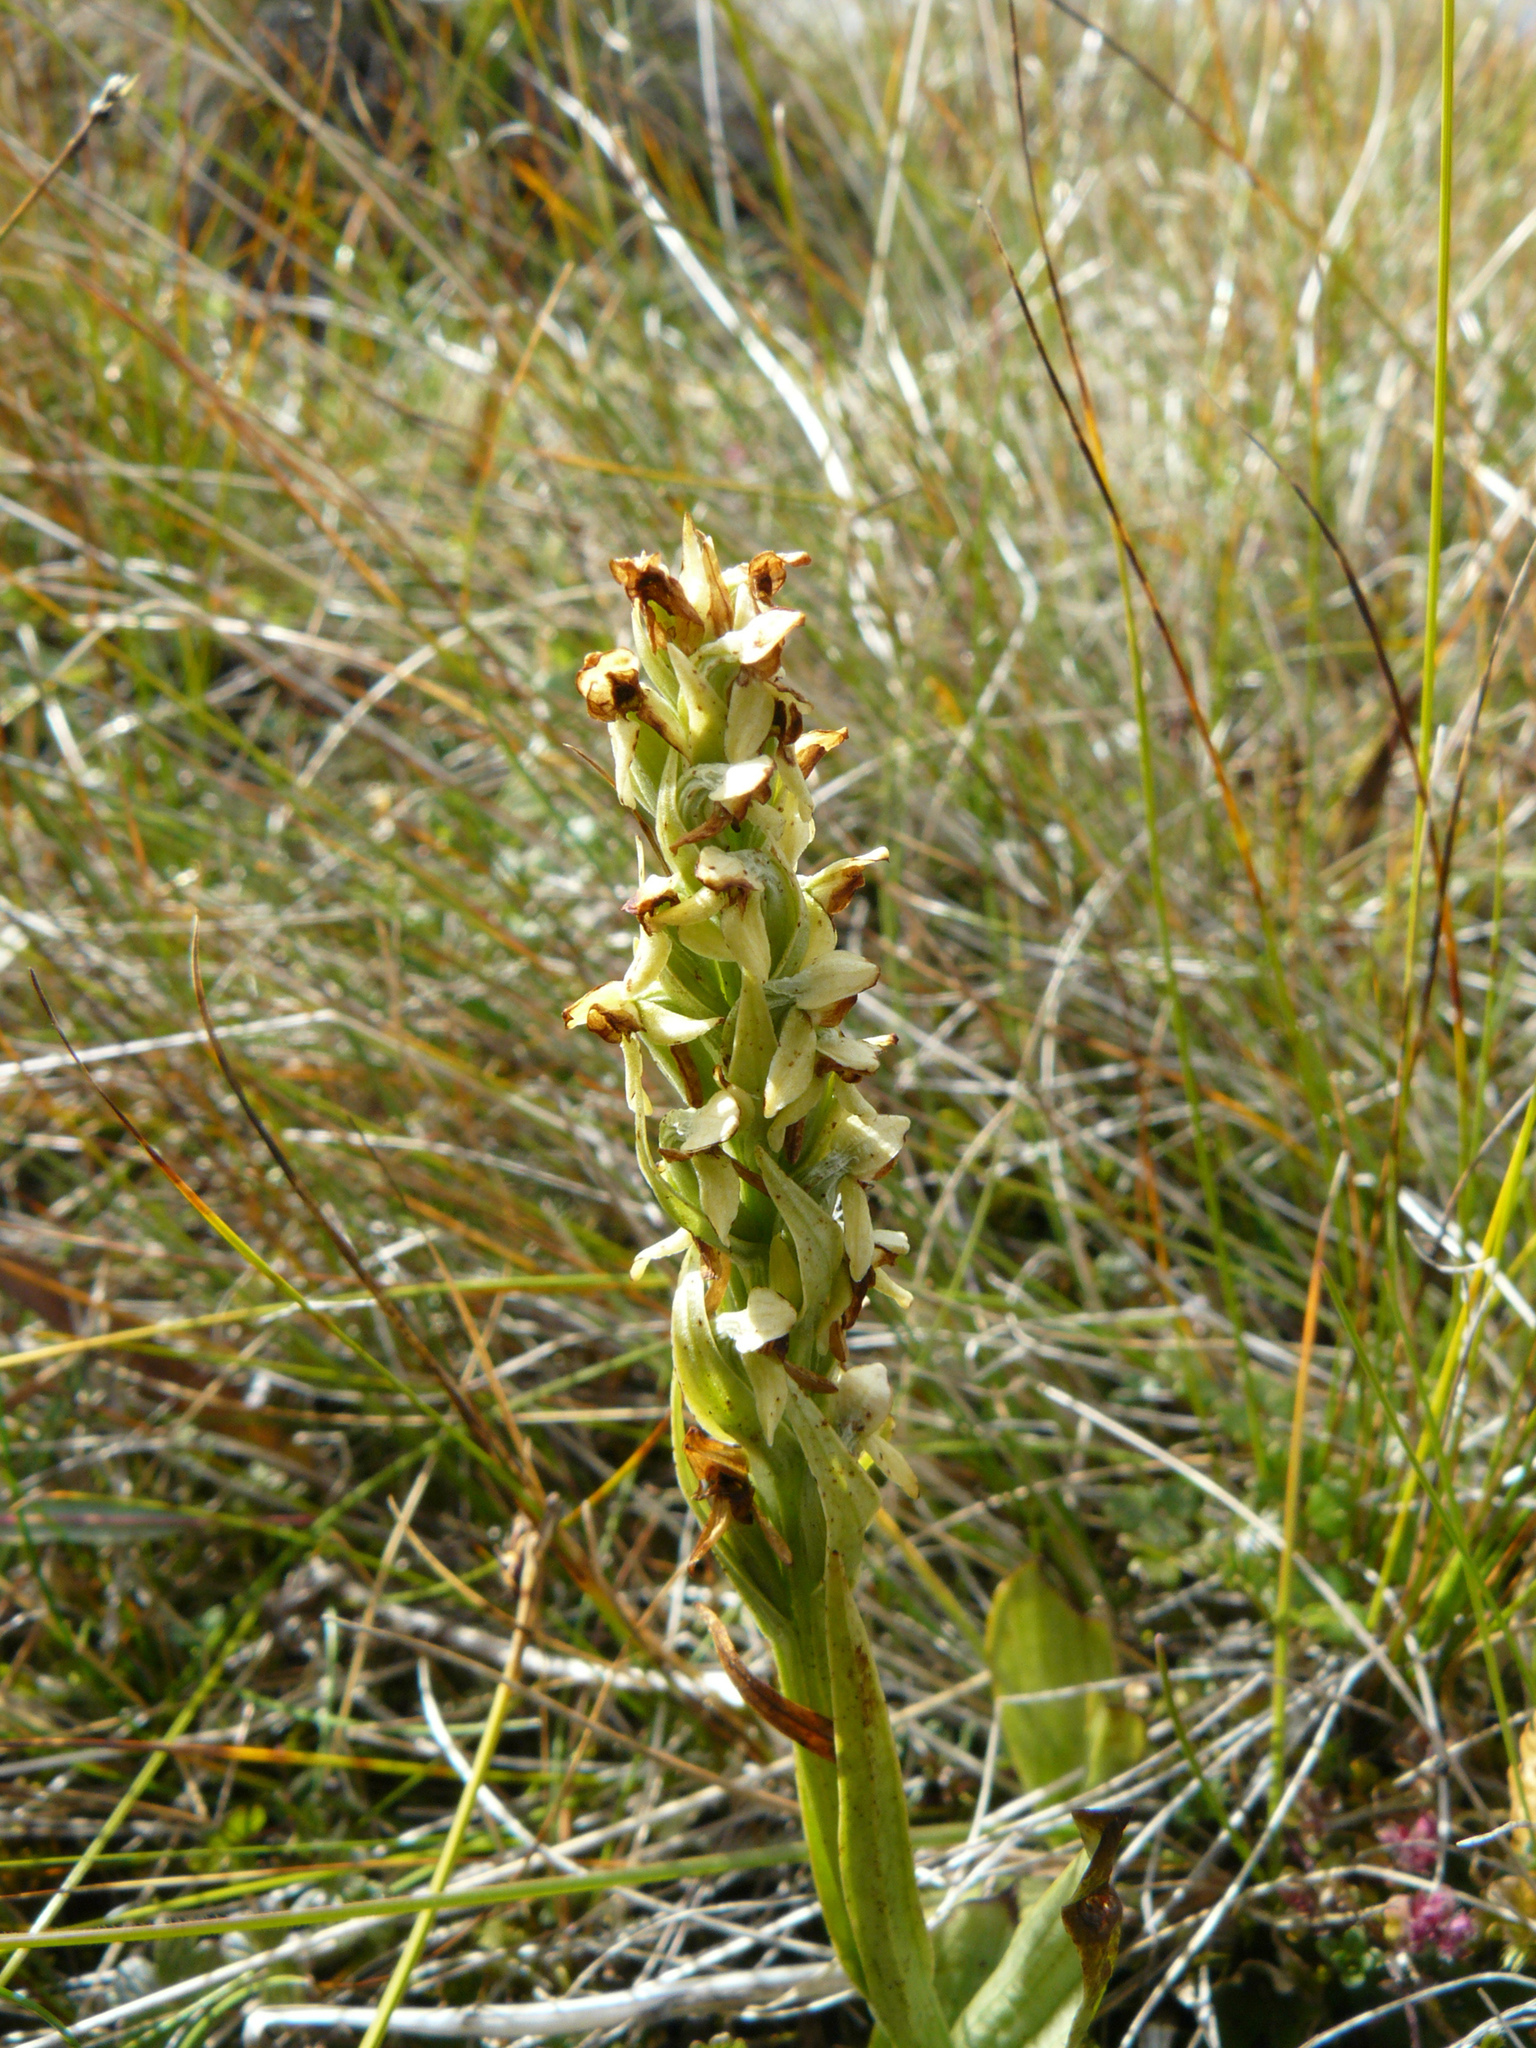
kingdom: Plantae
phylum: Tracheophyta
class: Liliopsida
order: Asparagales
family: Orchidaceae
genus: Platanthera
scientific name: Platanthera hyperborea
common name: Northern green orchid
